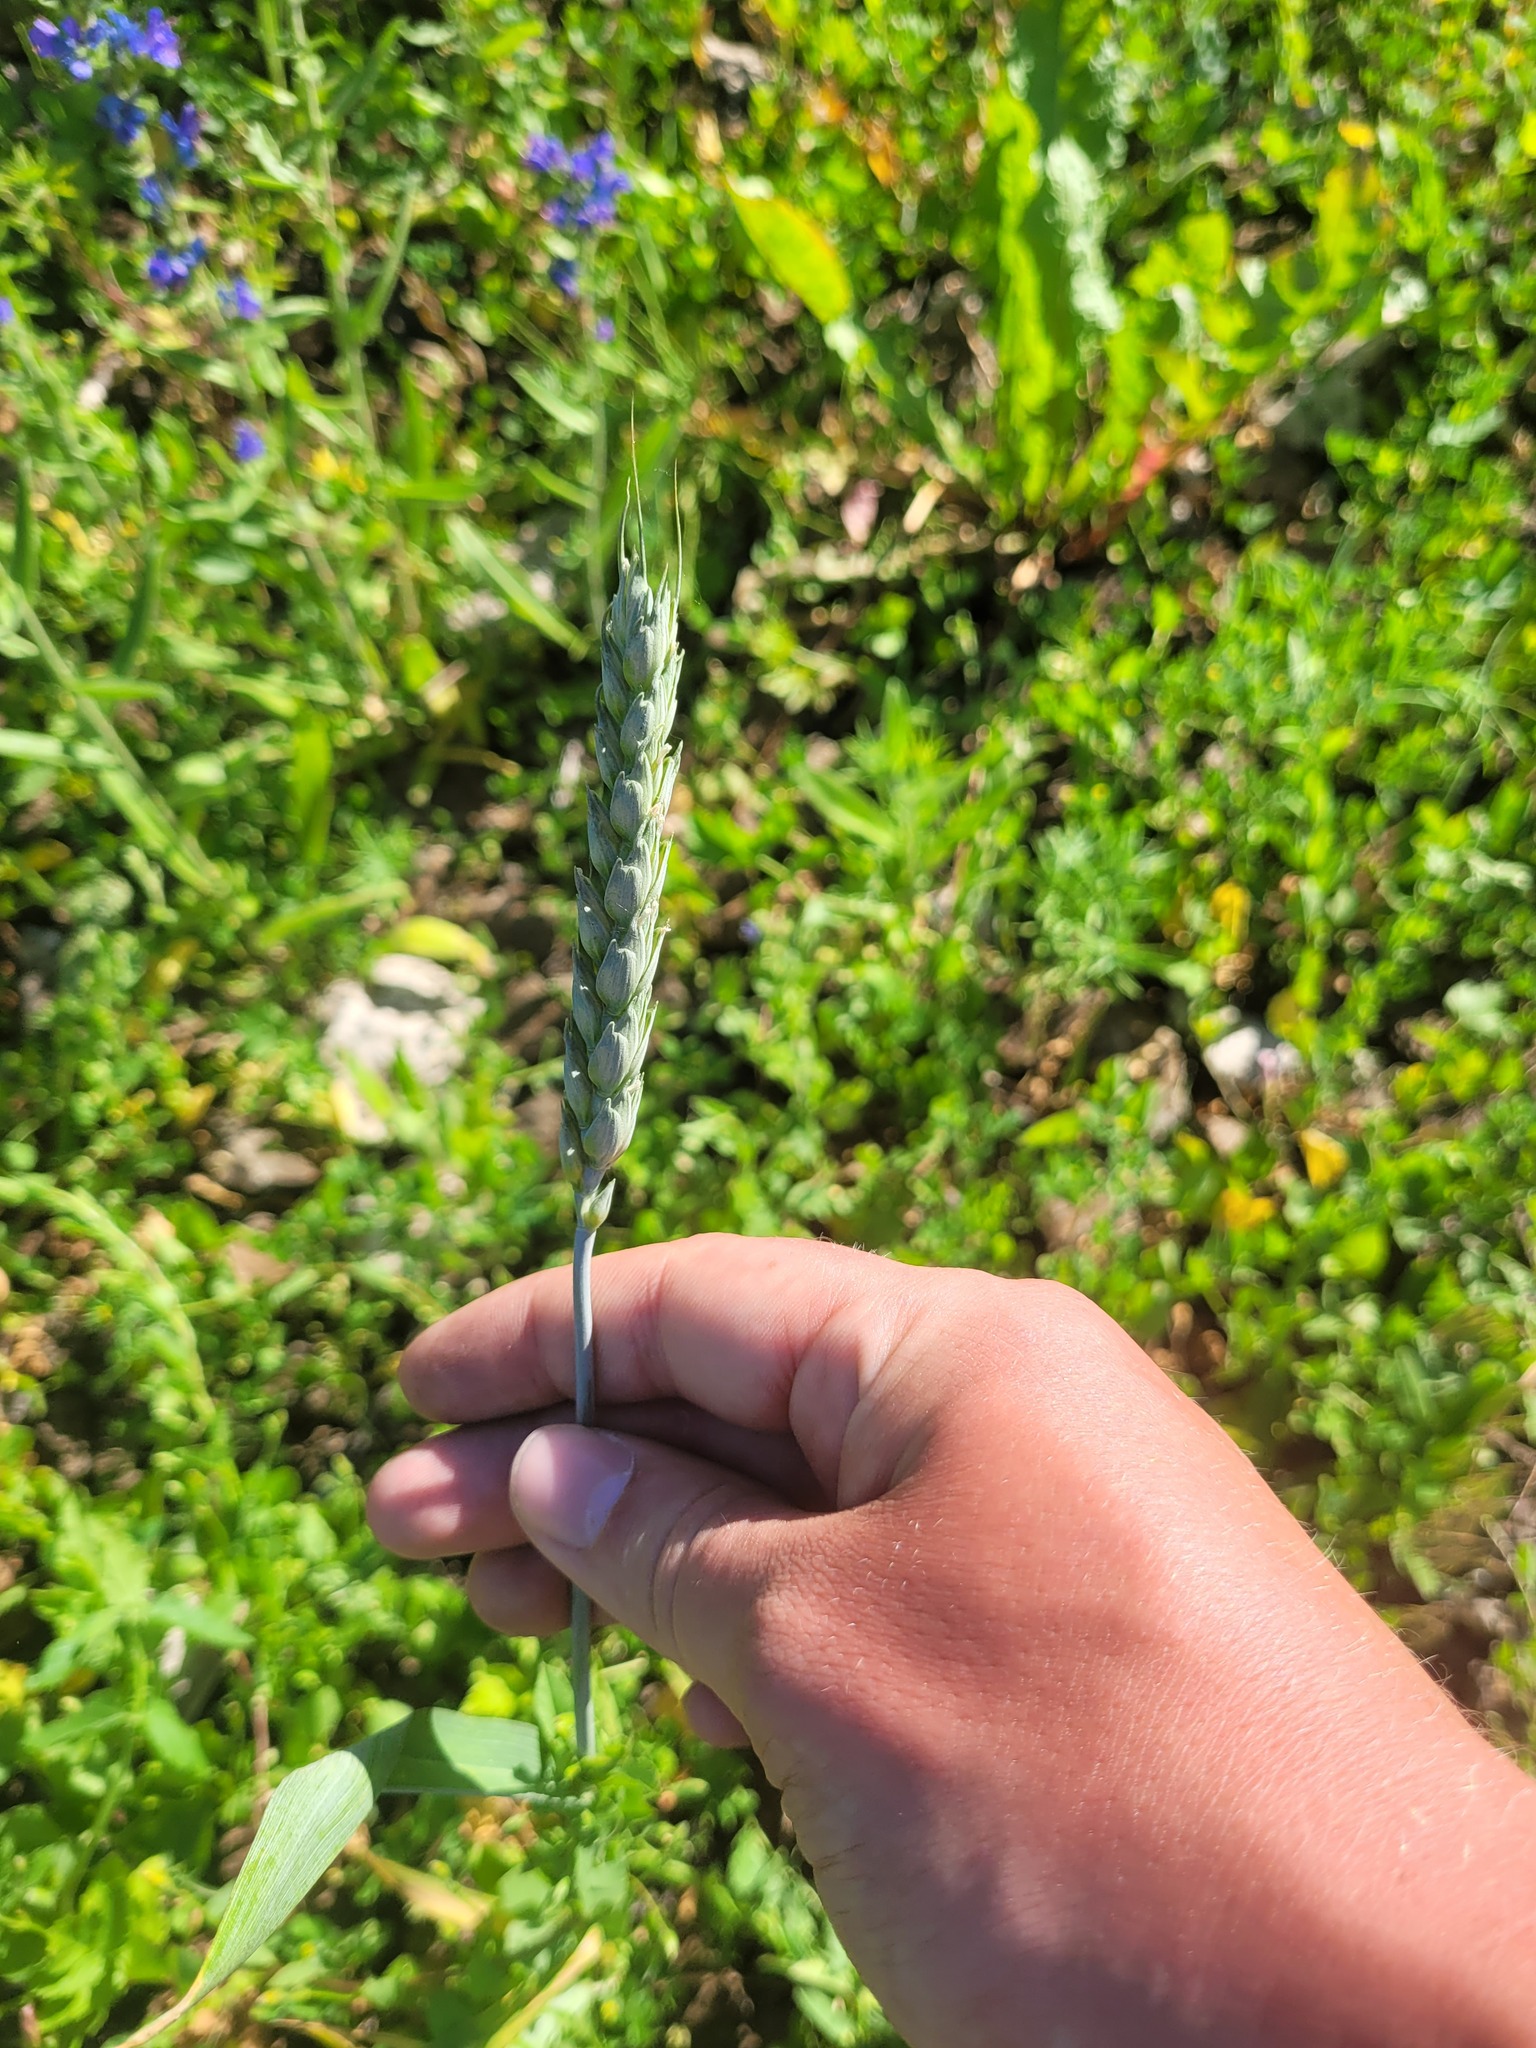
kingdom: Plantae
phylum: Tracheophyta
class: Liliopsida
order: Poales
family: Poaceae
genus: Triticum
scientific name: Triticum aestivum
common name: Common wheat
